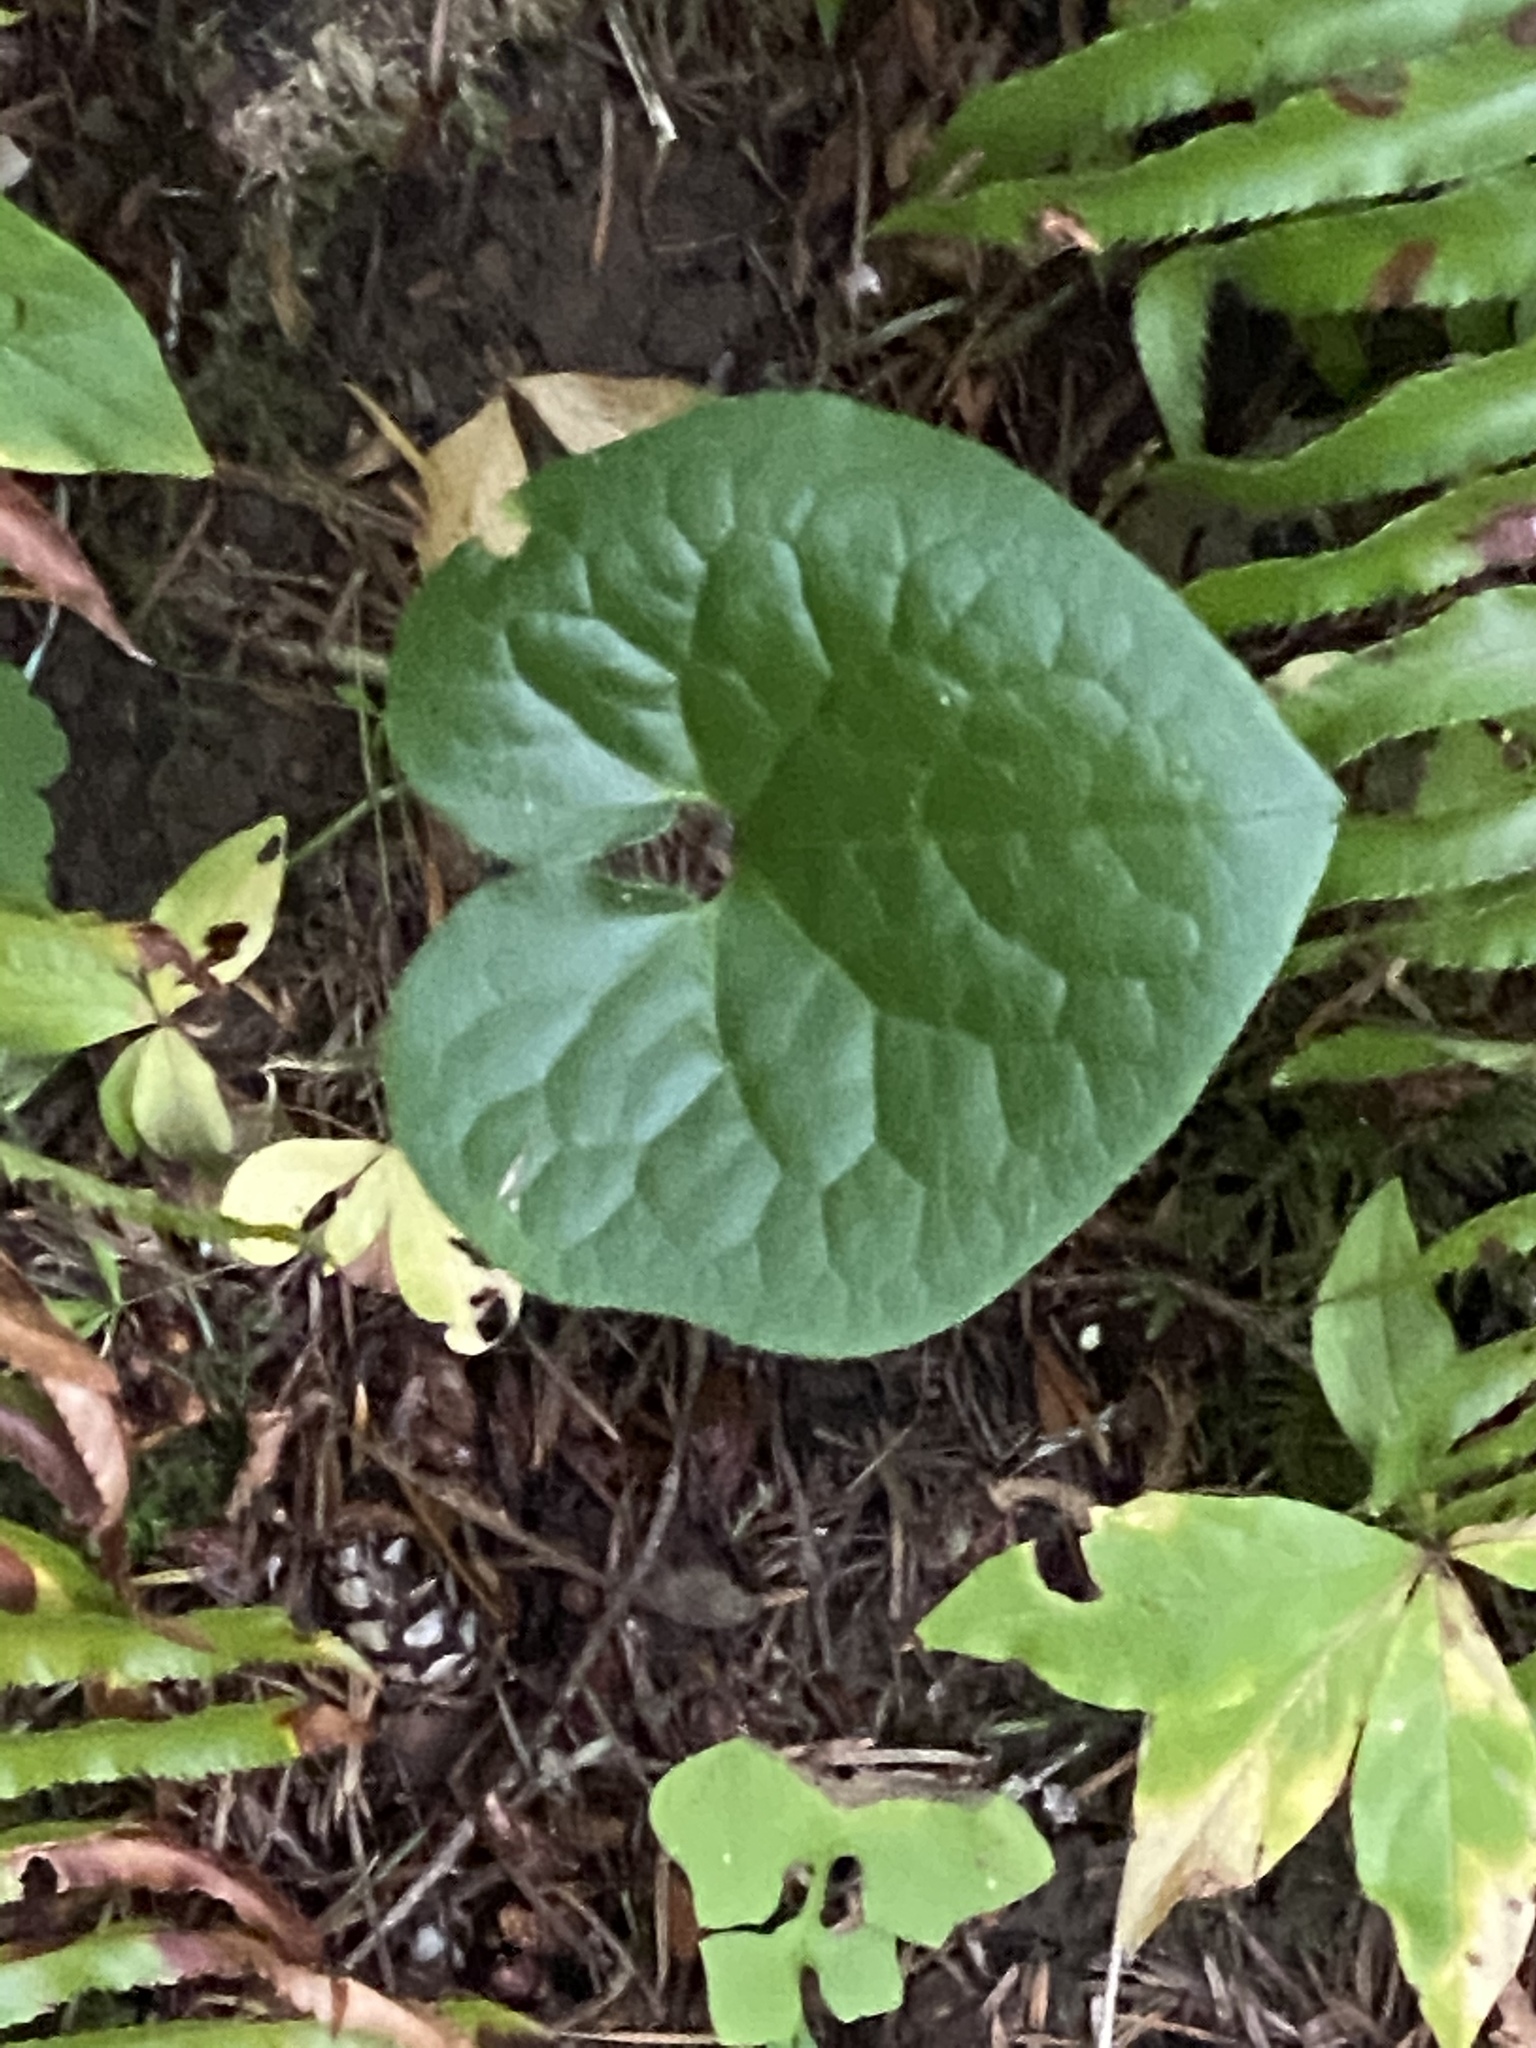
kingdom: Plantae
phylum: Tracheophyta
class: Magnoliopsida
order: Piperales
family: Aristolochiaceae
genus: Asarum
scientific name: Asarum caudatum
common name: Wild ginger
